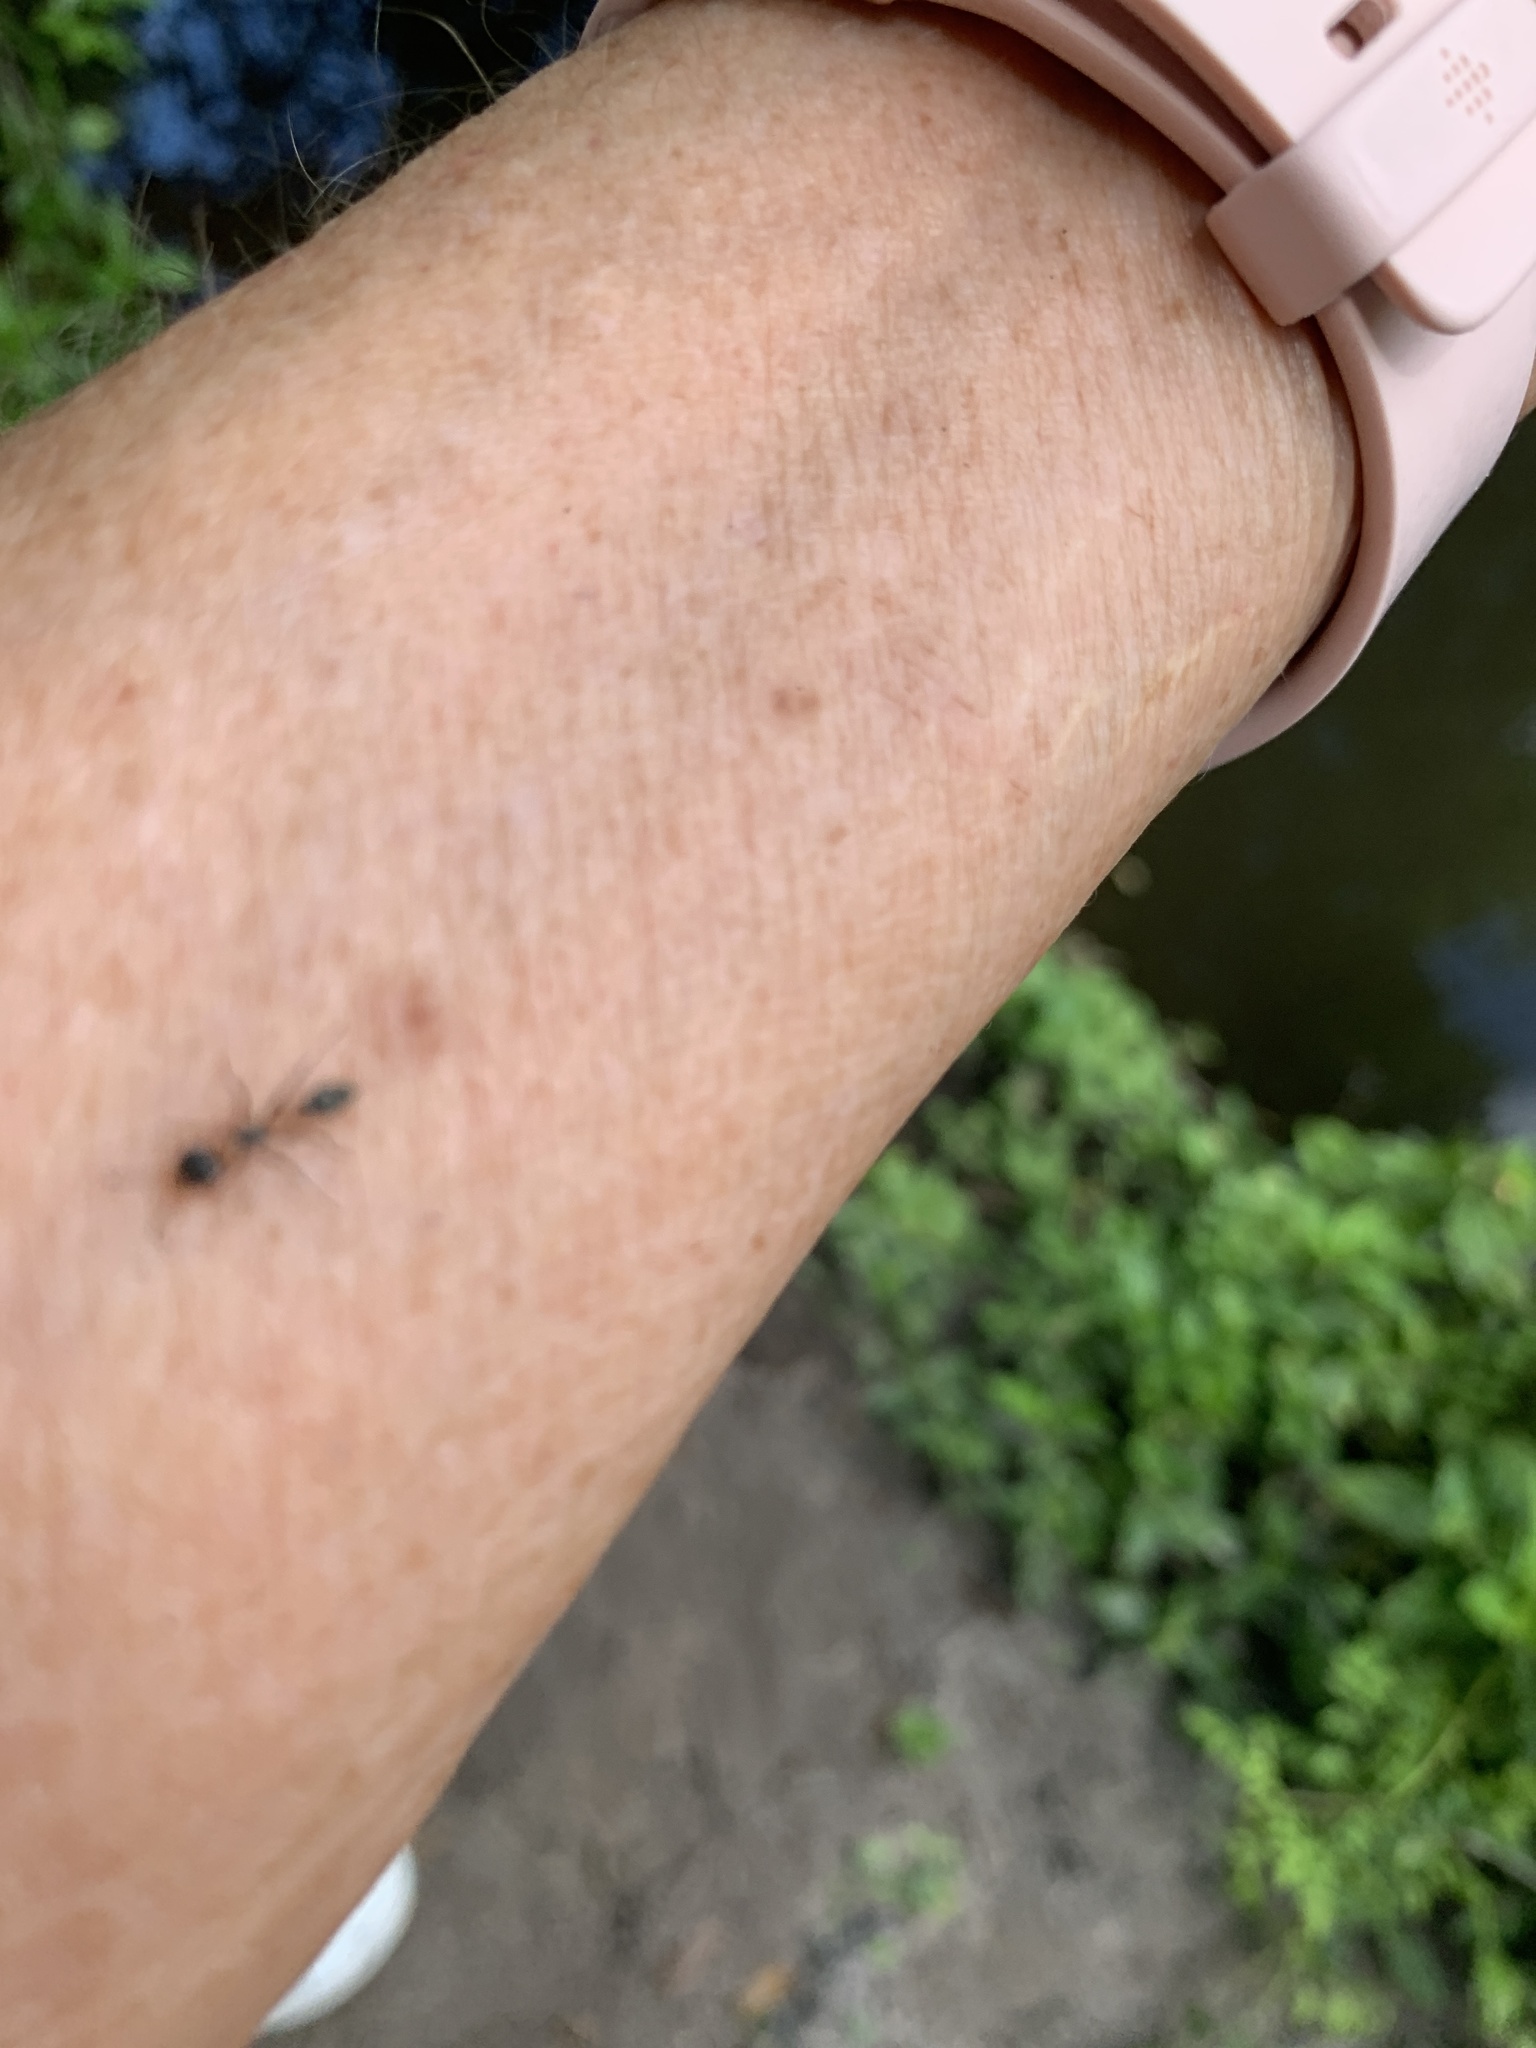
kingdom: Animalia
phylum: Arthropoda
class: Insecta
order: Hymenoptera
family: Formicidae
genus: Pseudomyrmex
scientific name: Pseudomyrmex gracilis
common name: Graceful twig ant
